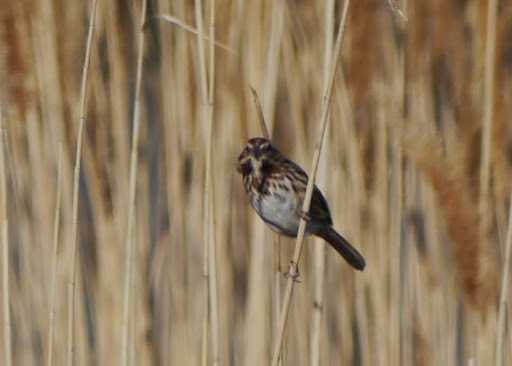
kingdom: Animalia
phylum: Chordata
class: Aves
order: Passeriformes
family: Passerellidae
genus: Melospiza
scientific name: Melospiza melodia
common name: Song sparrow
